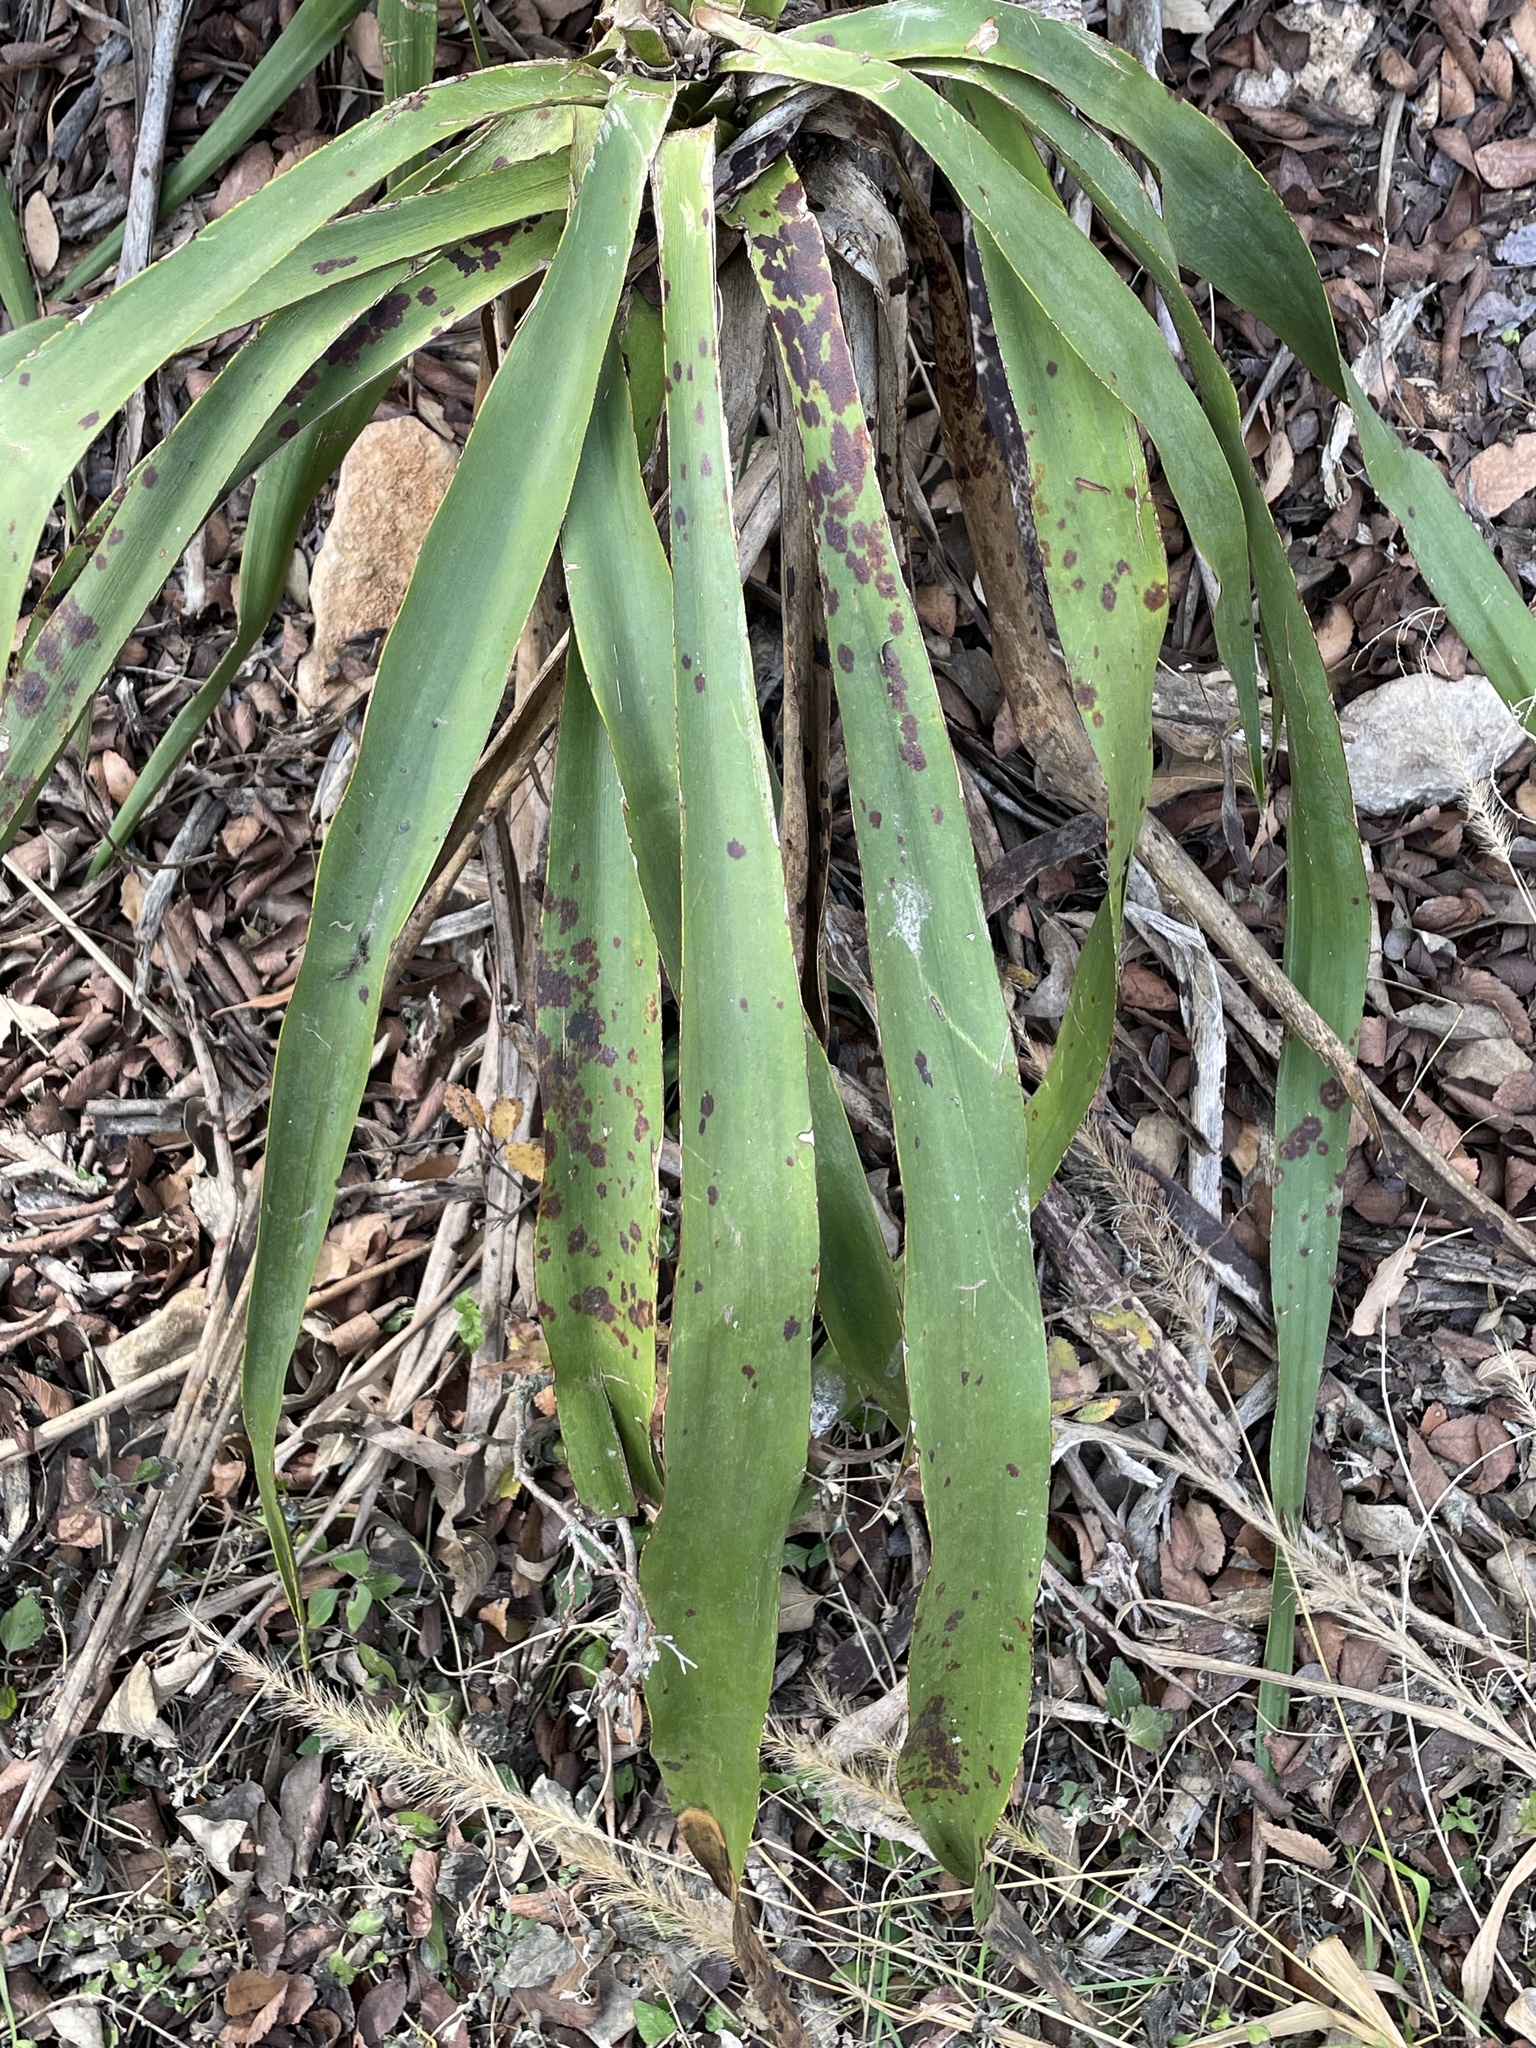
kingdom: Plantae
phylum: Tracheophyta
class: Liliopsida
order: Asparagales
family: Asparagaceae
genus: Yucca
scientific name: Yucca rupicola
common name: Twisted-leaf spanish-dagger
